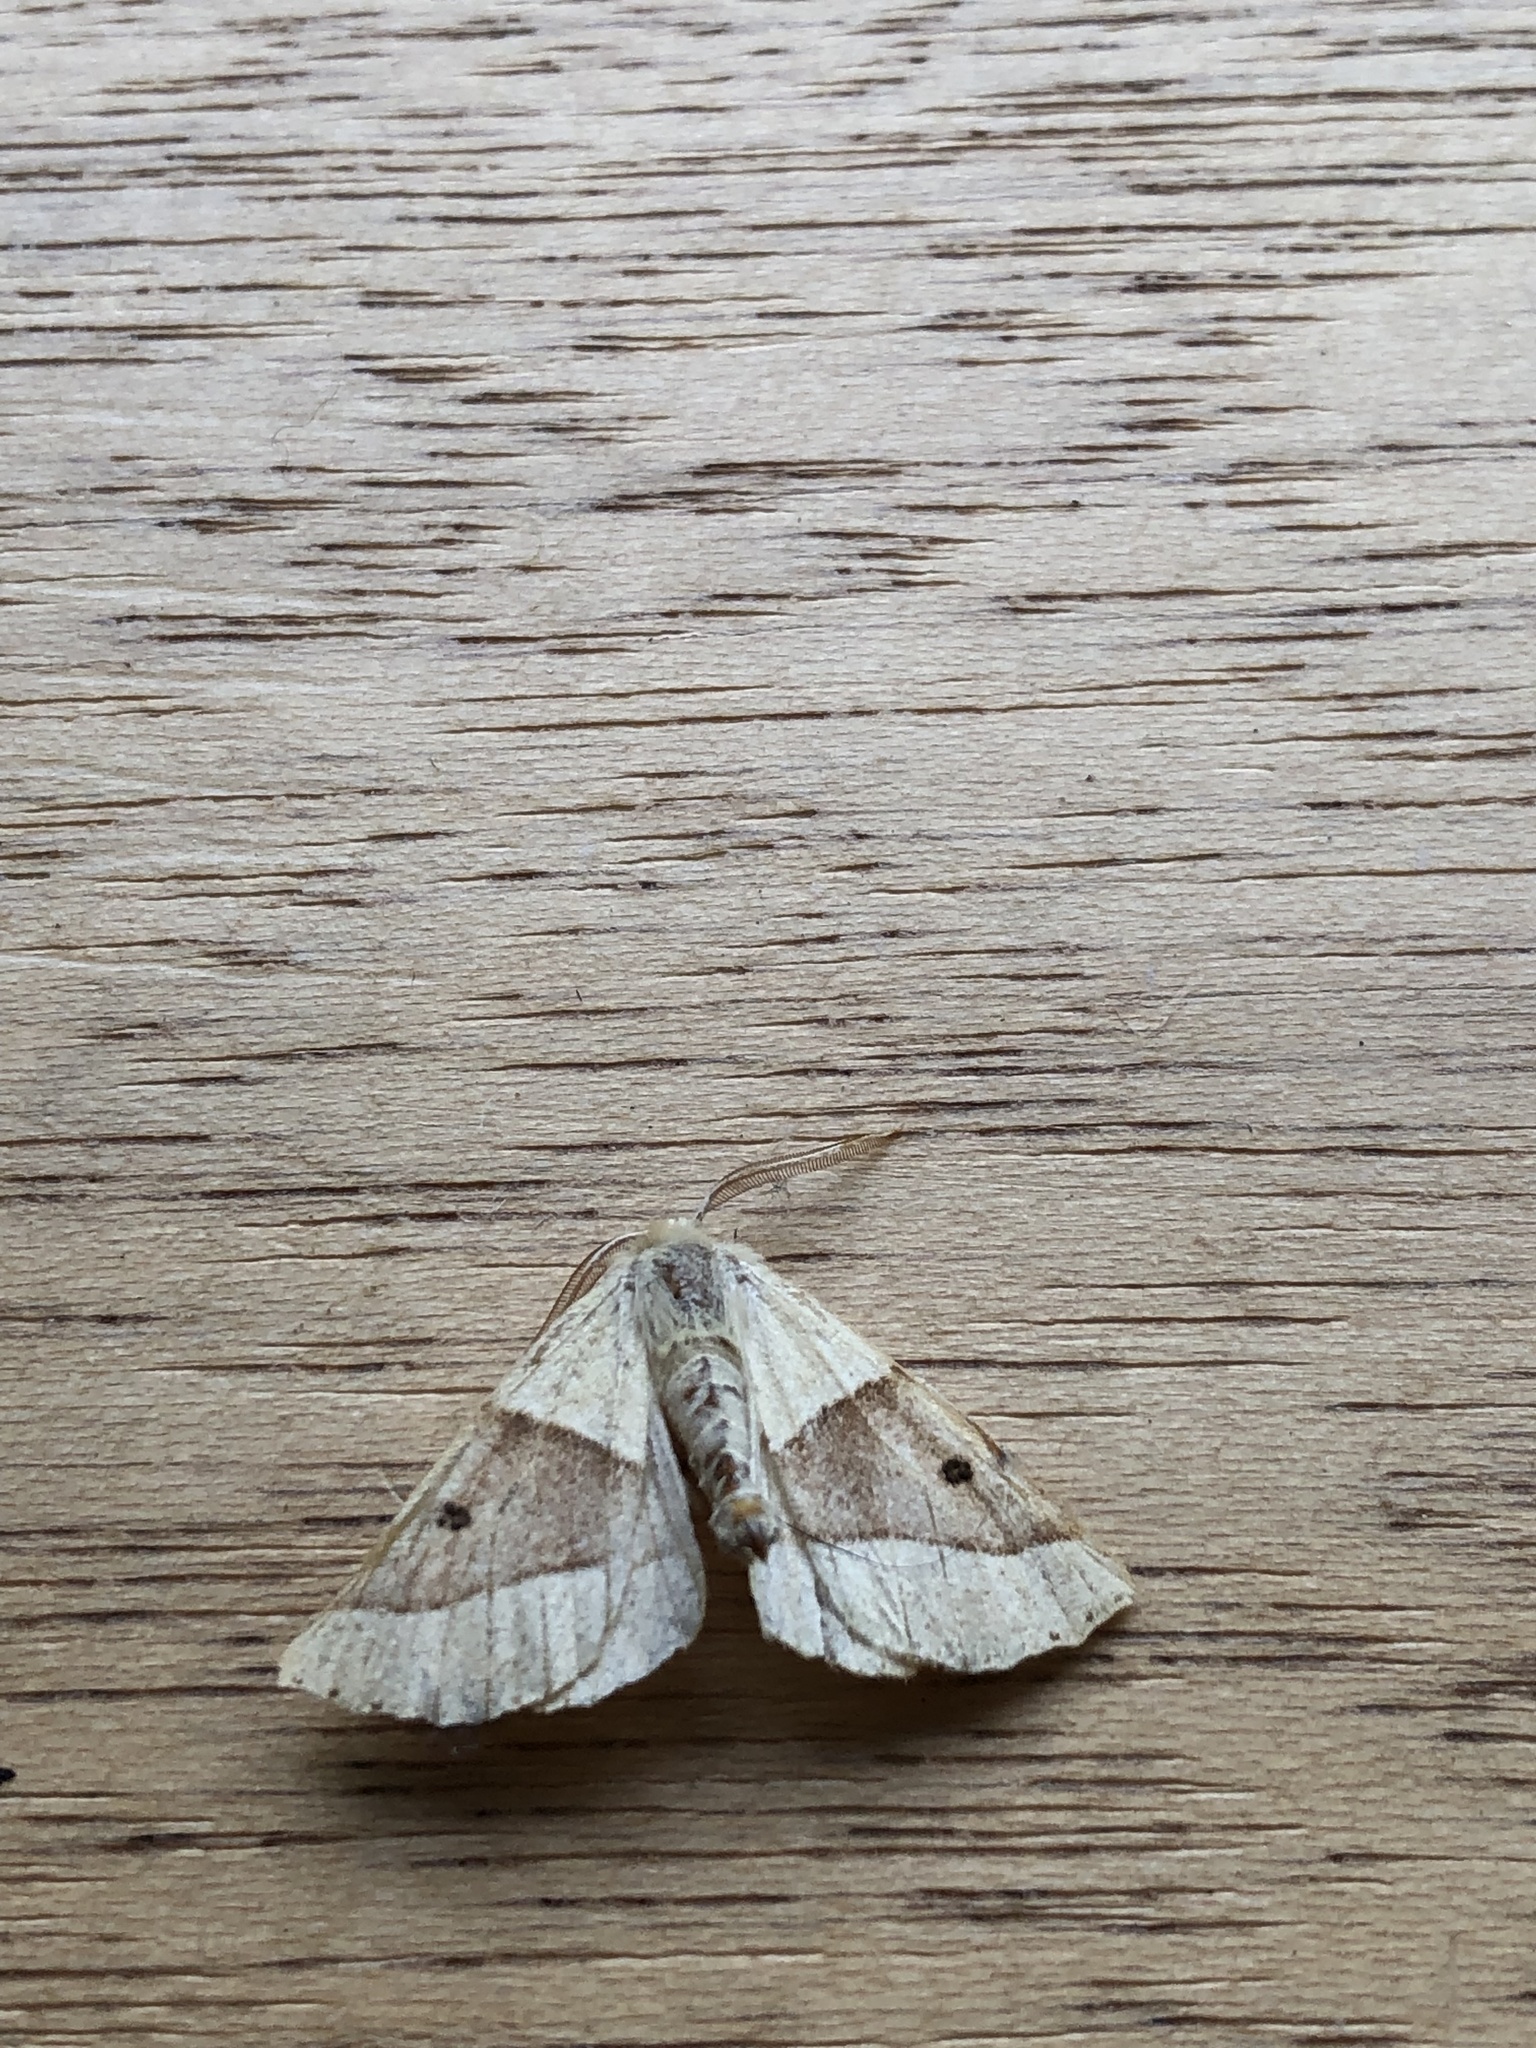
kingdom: Animalia
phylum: Arthropoda
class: Insecta
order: Lepidoptera
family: Geometridae
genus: Crocallis
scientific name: Crocallis elinguaria
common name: Scalloped oak
